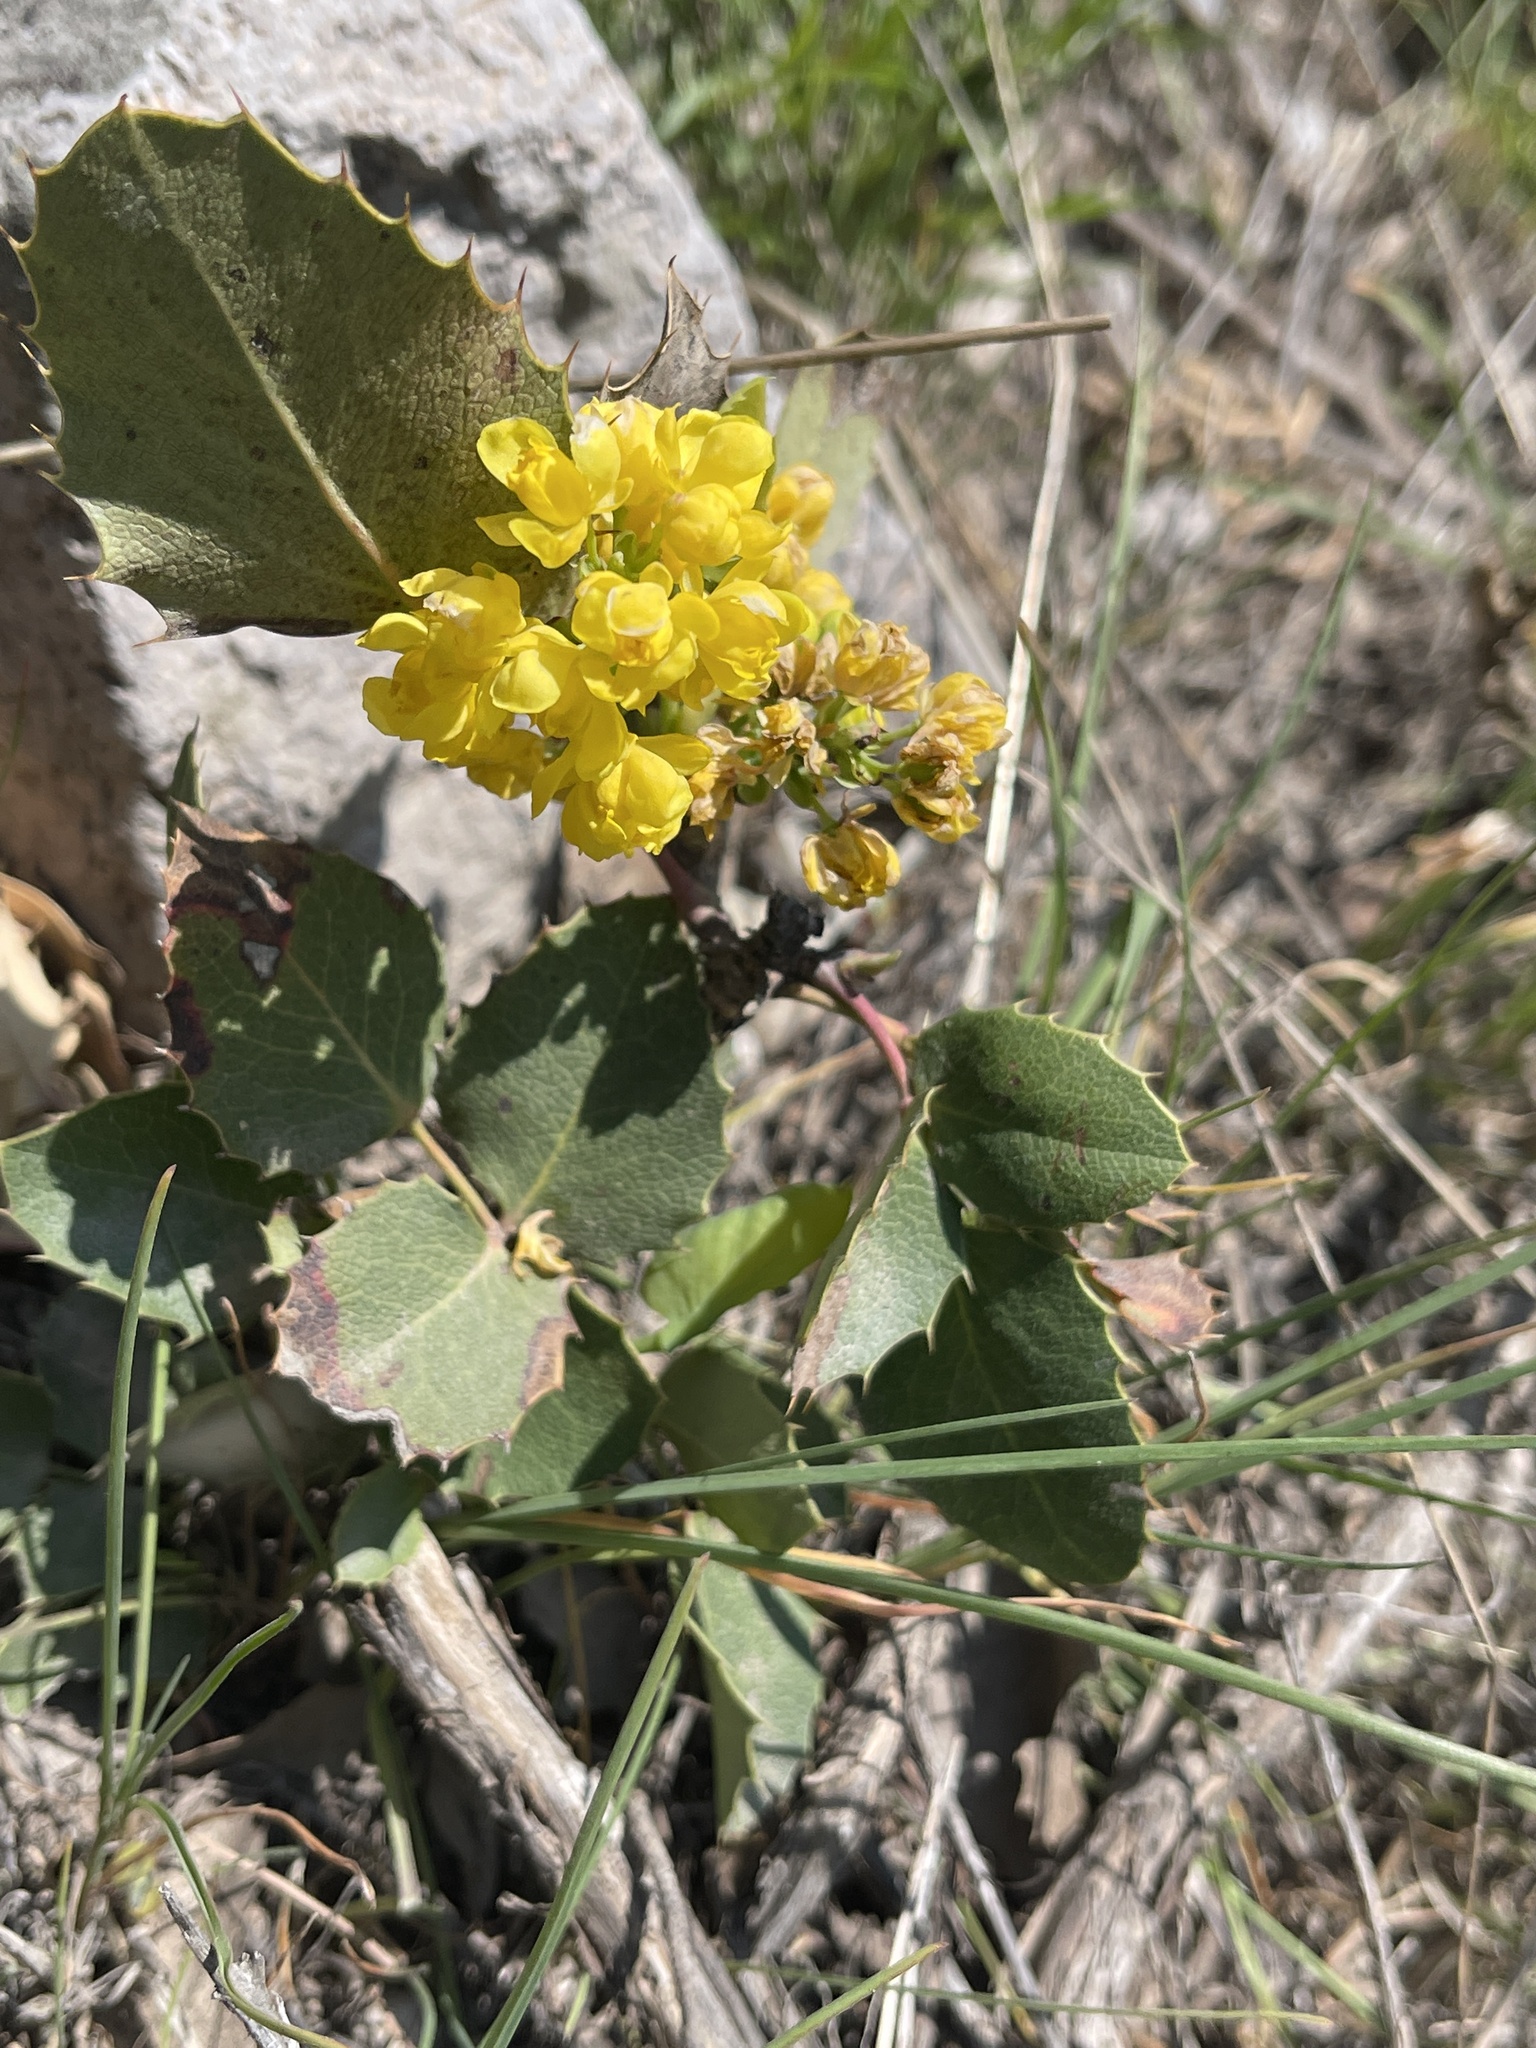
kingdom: Plantae
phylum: Tracheophyta
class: Magnoliopsida
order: Ranunculales
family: Berberidaceae
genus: Mahonia
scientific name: Mahonia repens
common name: Creeping oregon-grape
